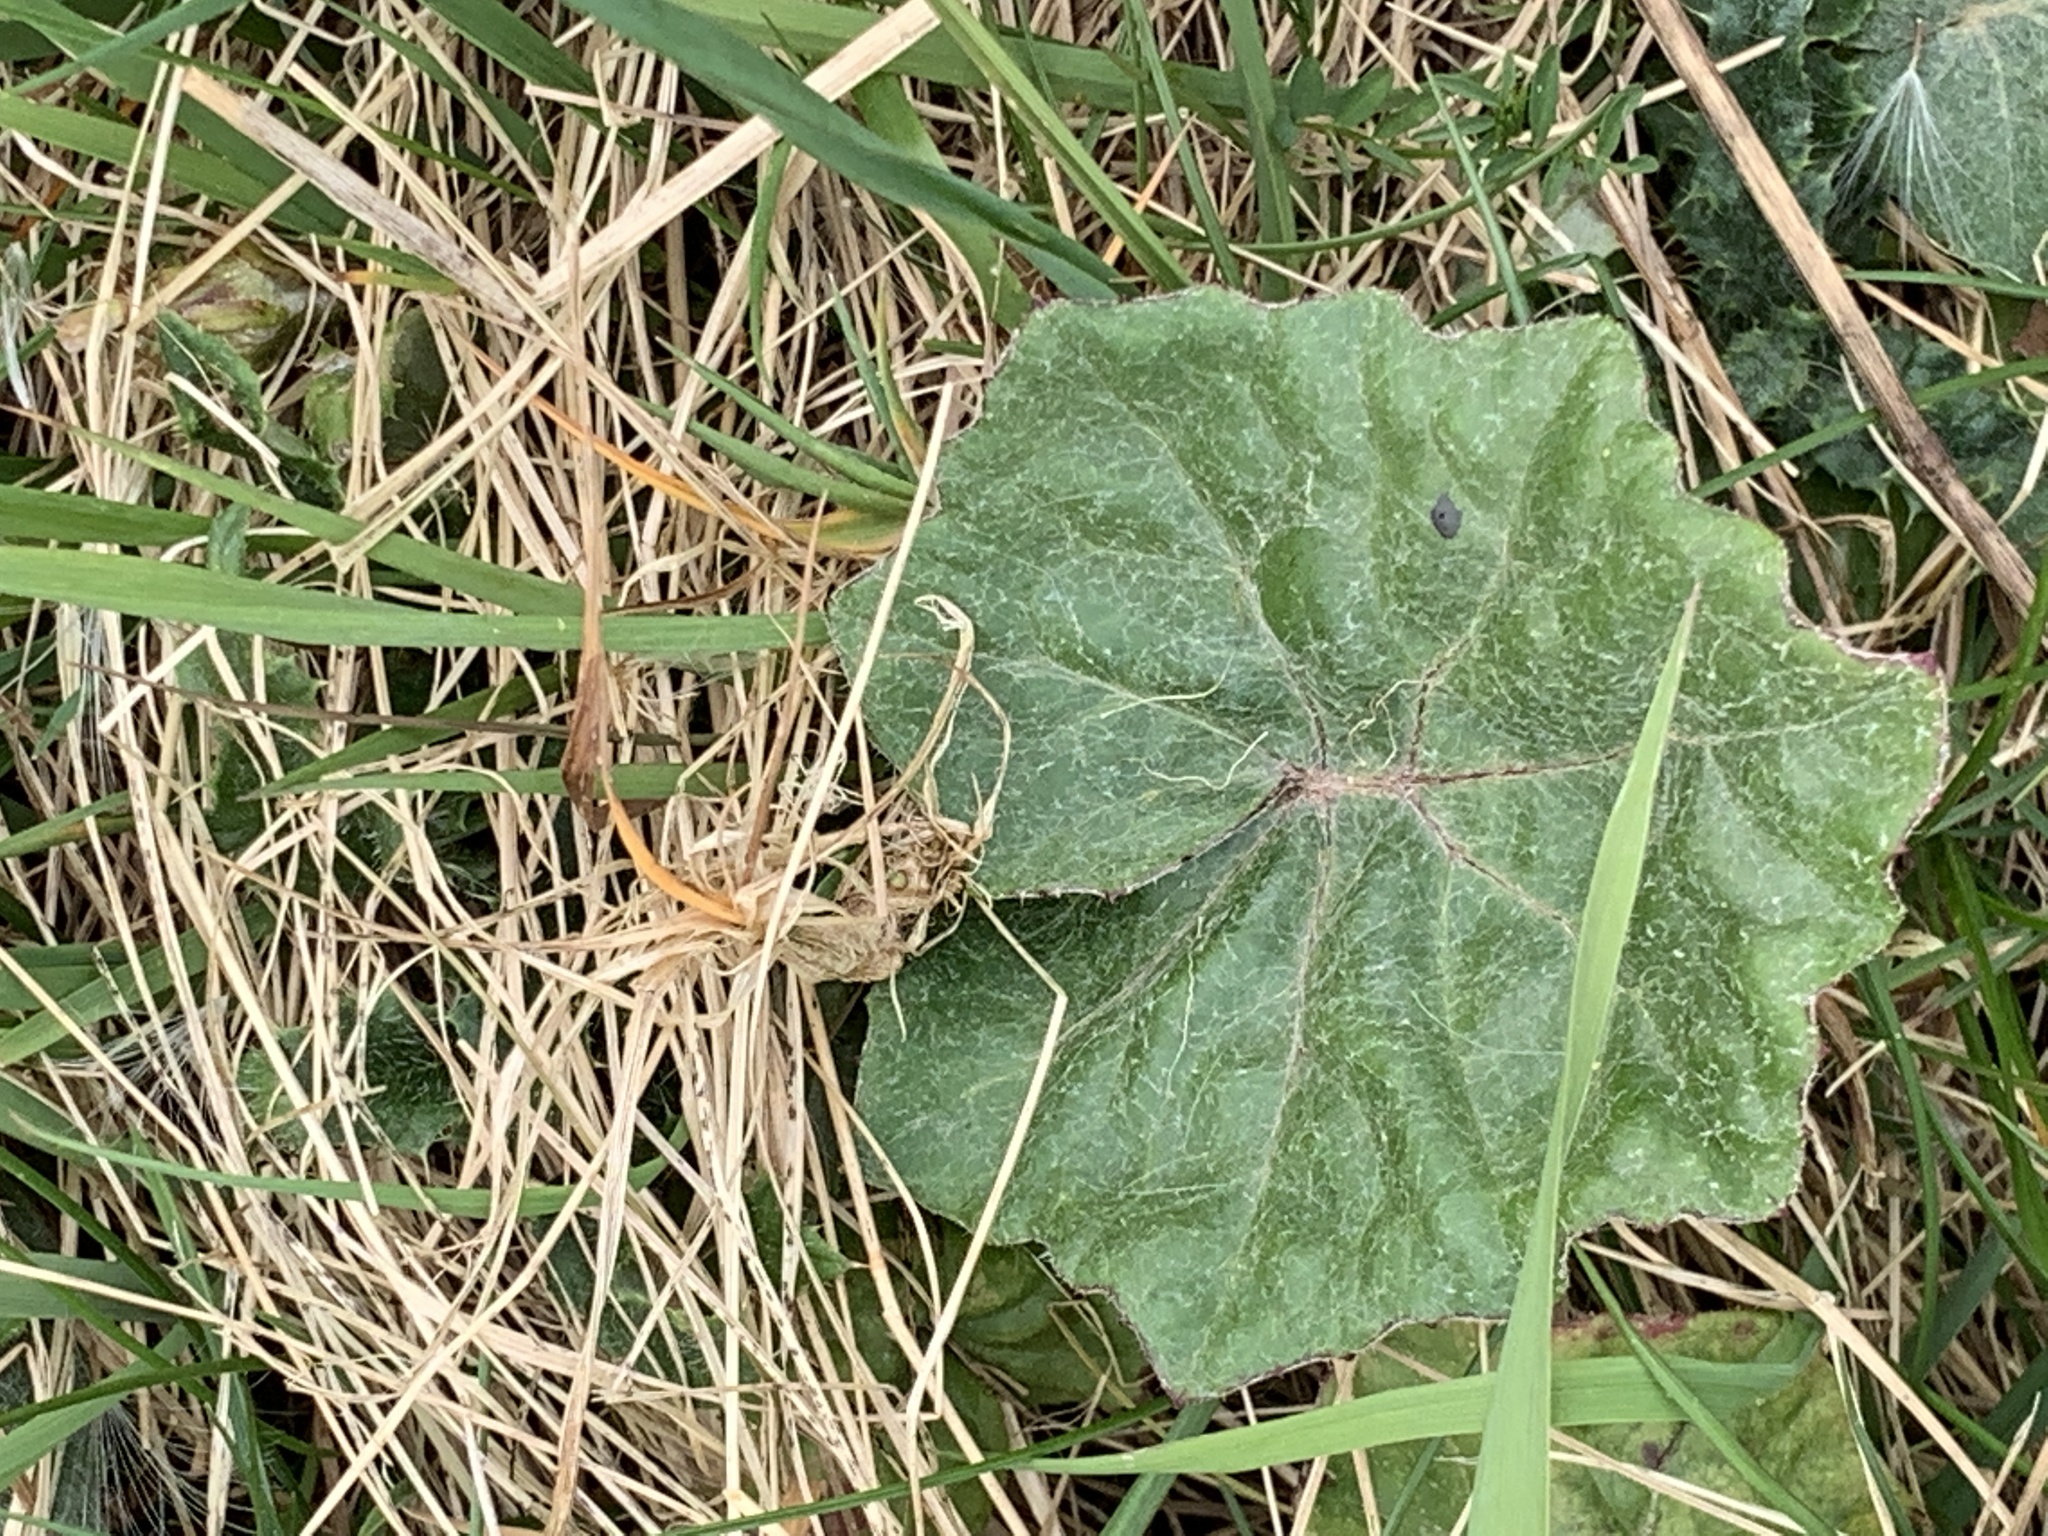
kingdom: Plantae
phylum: Tracheophyta
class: Magnoliopsida
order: Asterales
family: Asteraceae
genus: Tussilago
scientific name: Tussilago farfara
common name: Coltsfoot
